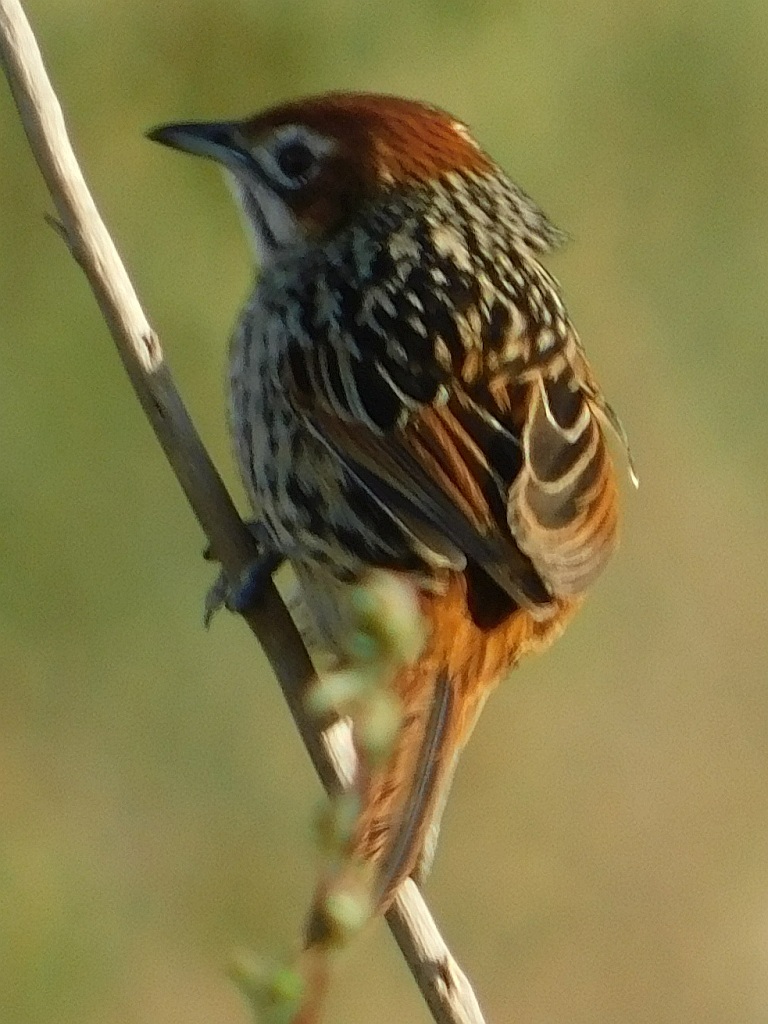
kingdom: Animalia
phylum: Chordata
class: Aves
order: Passeriformes
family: Macrosphenidae
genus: Sphenoeacus
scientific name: Sphenoeacus afer
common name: Cape grassbird
